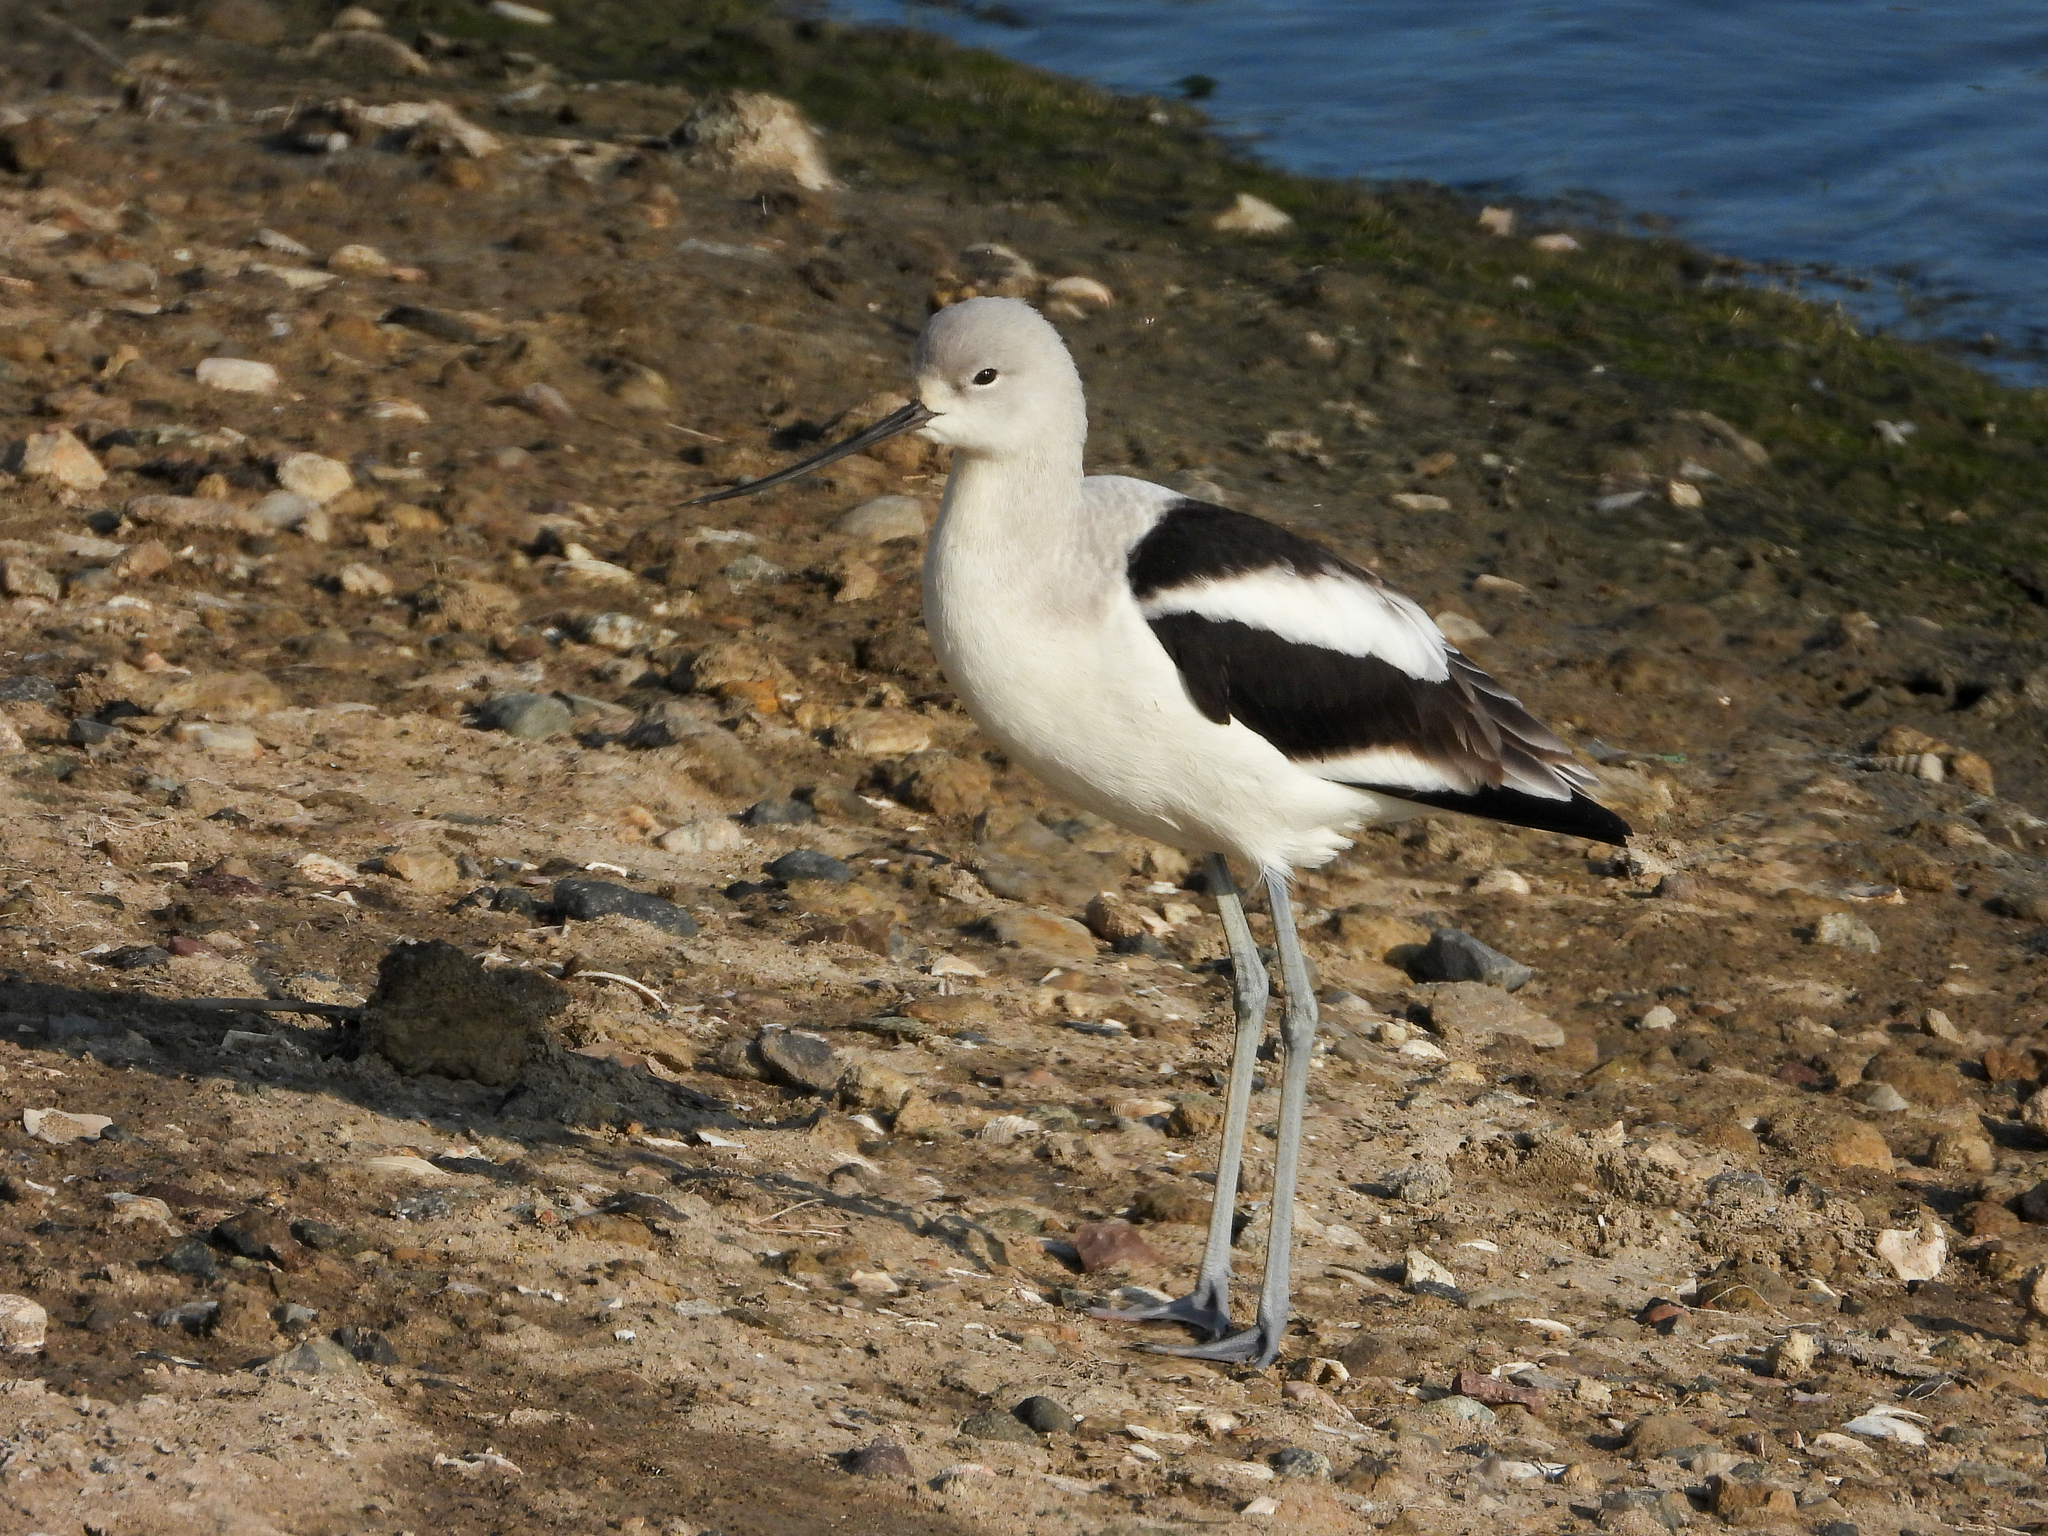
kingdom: Animalia
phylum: Chordata
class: Aves
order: Charadriiformes
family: Recurvirostridae
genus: Recurvirostra
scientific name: Recurvirostra americana
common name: American avocet
